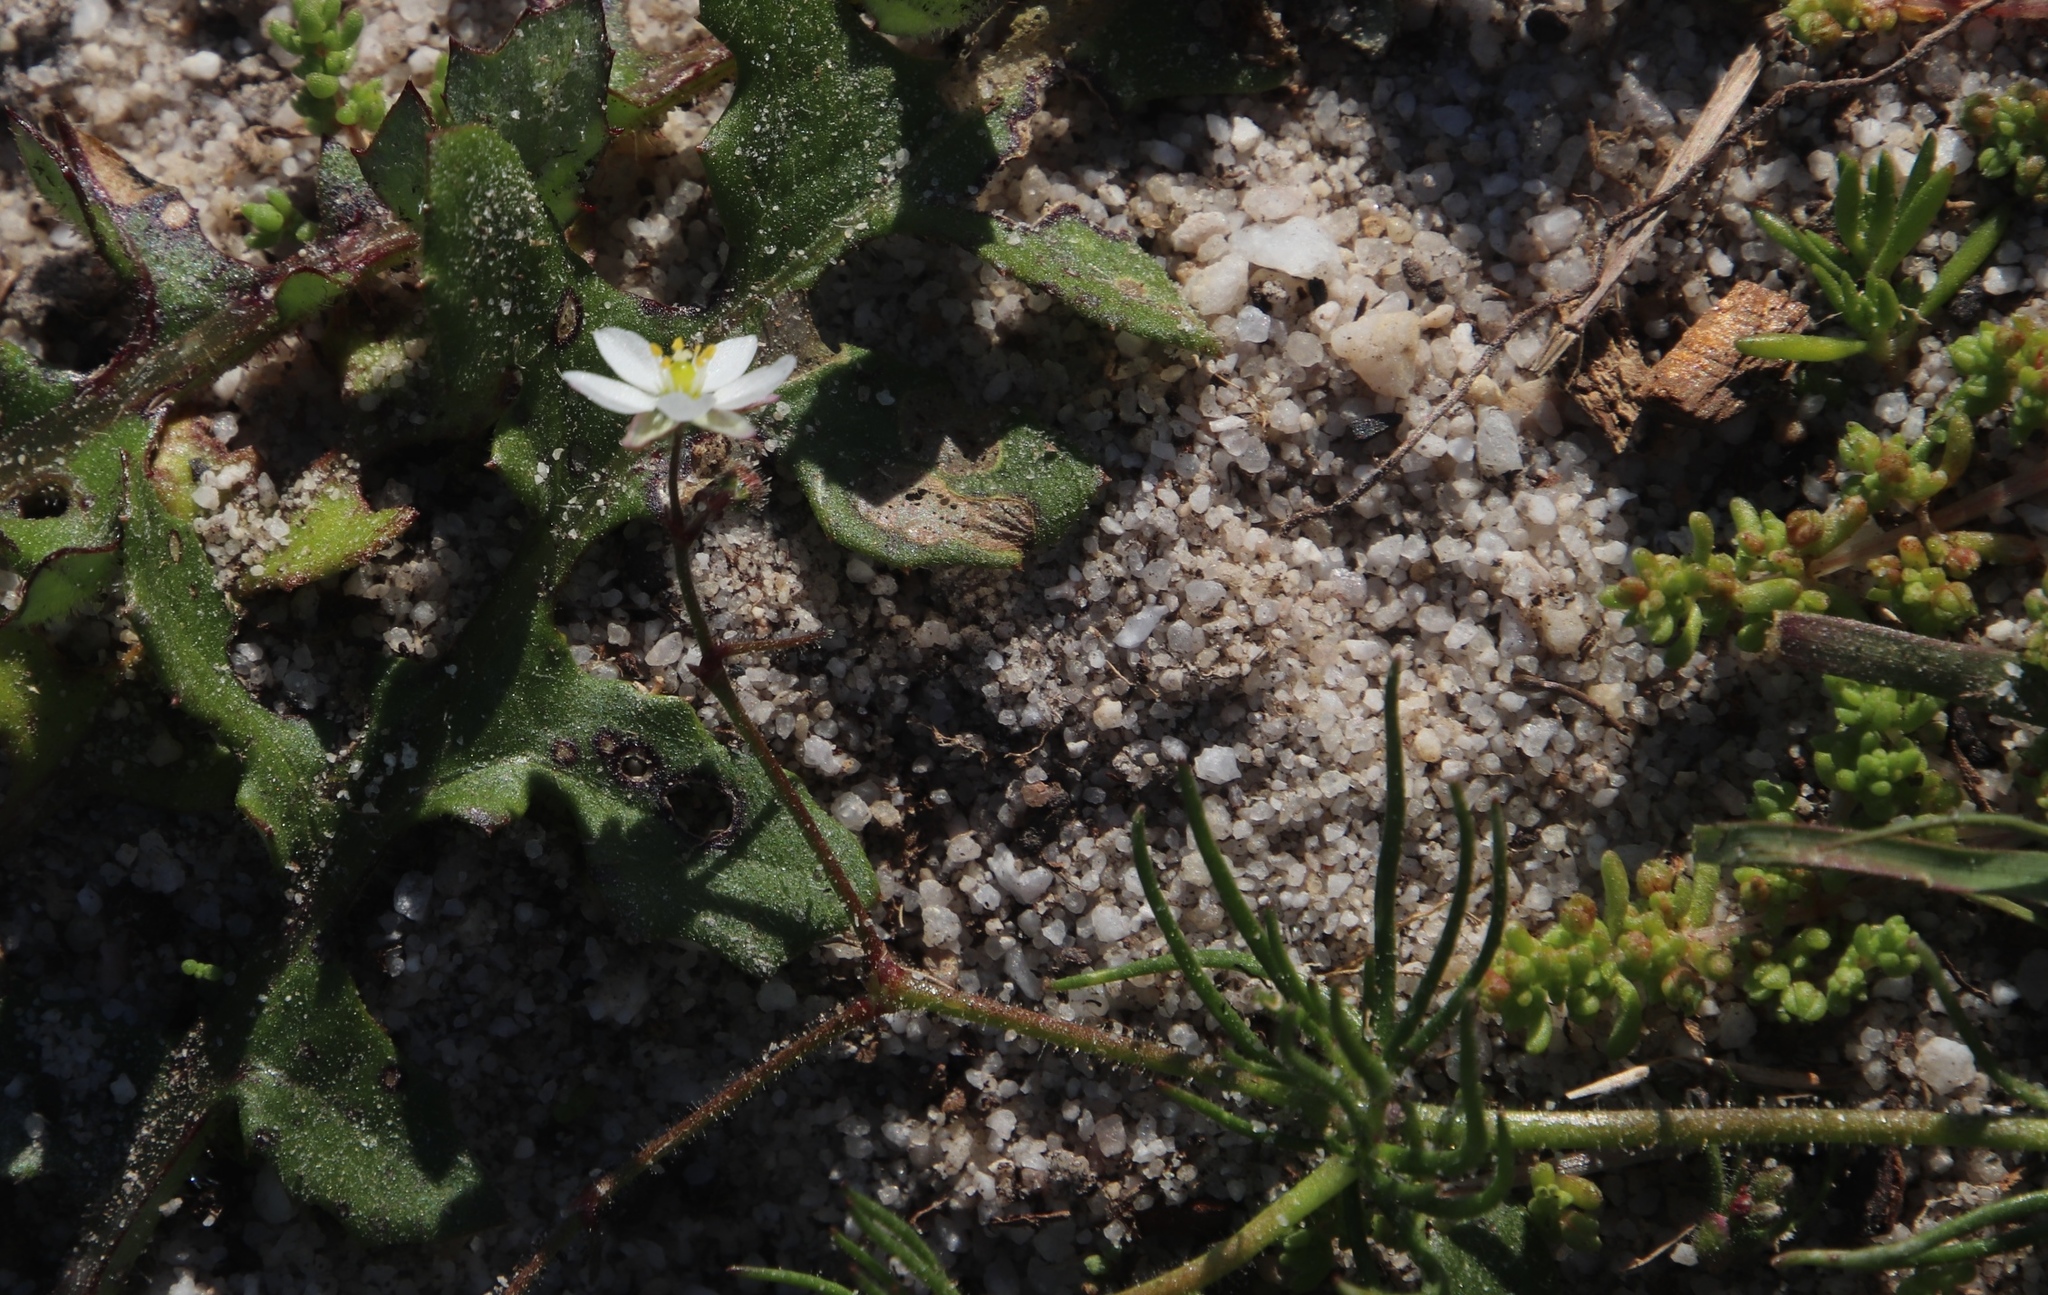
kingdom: Plantae
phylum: Tracheophyta
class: Magnoliopsida
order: Caryophyllales
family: Caryophyllaceae
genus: Spergula
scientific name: Spergula arvensis
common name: Corn spurrey
